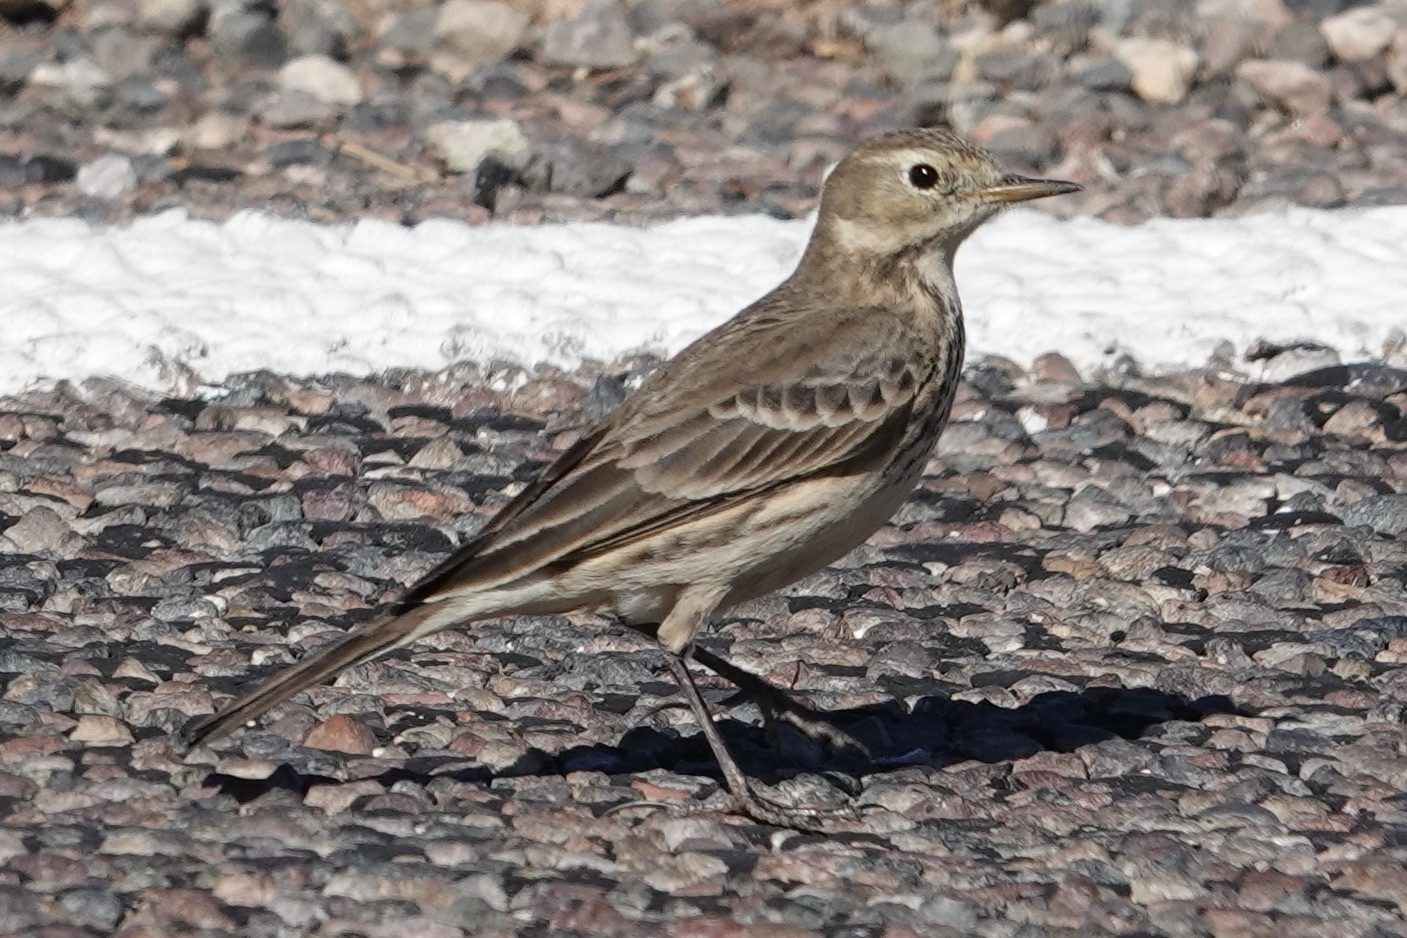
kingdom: Animalia
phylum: Chordata
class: Aves
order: Passeriformes
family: Motacillidae
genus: Anthus
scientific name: Anthus rubescens
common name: Buff-bellied pipit
